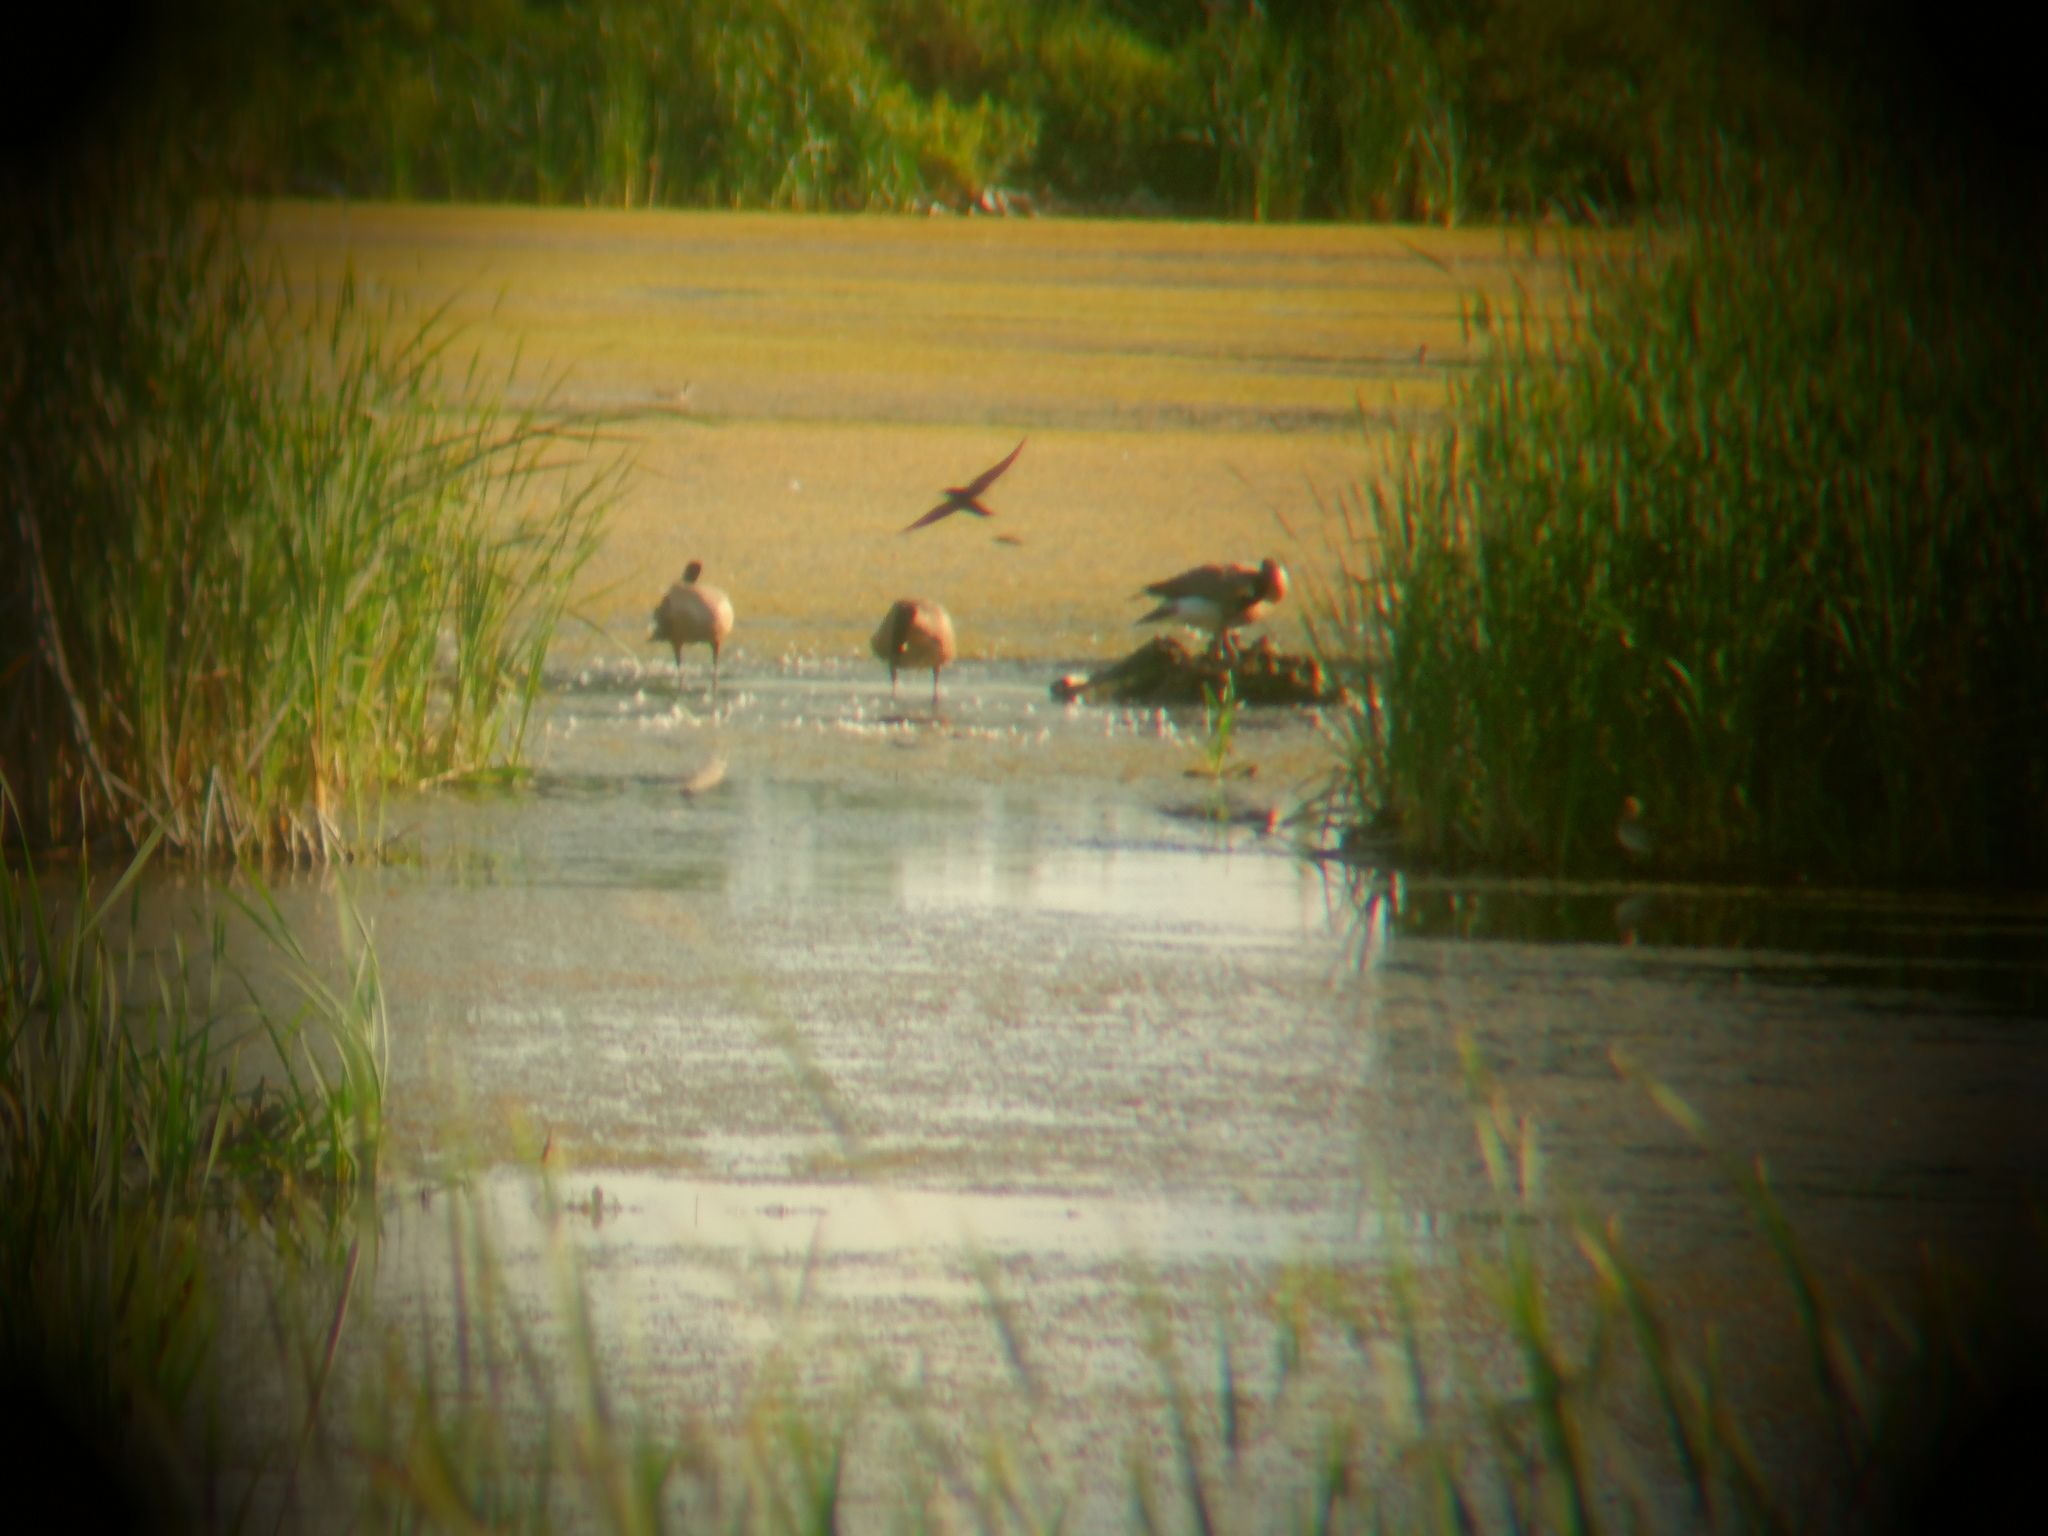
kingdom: Animalia
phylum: Chordata
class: Aves
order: Anseriformes
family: Anatidae
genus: Branta
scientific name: Branta canadensis
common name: Canada goose
